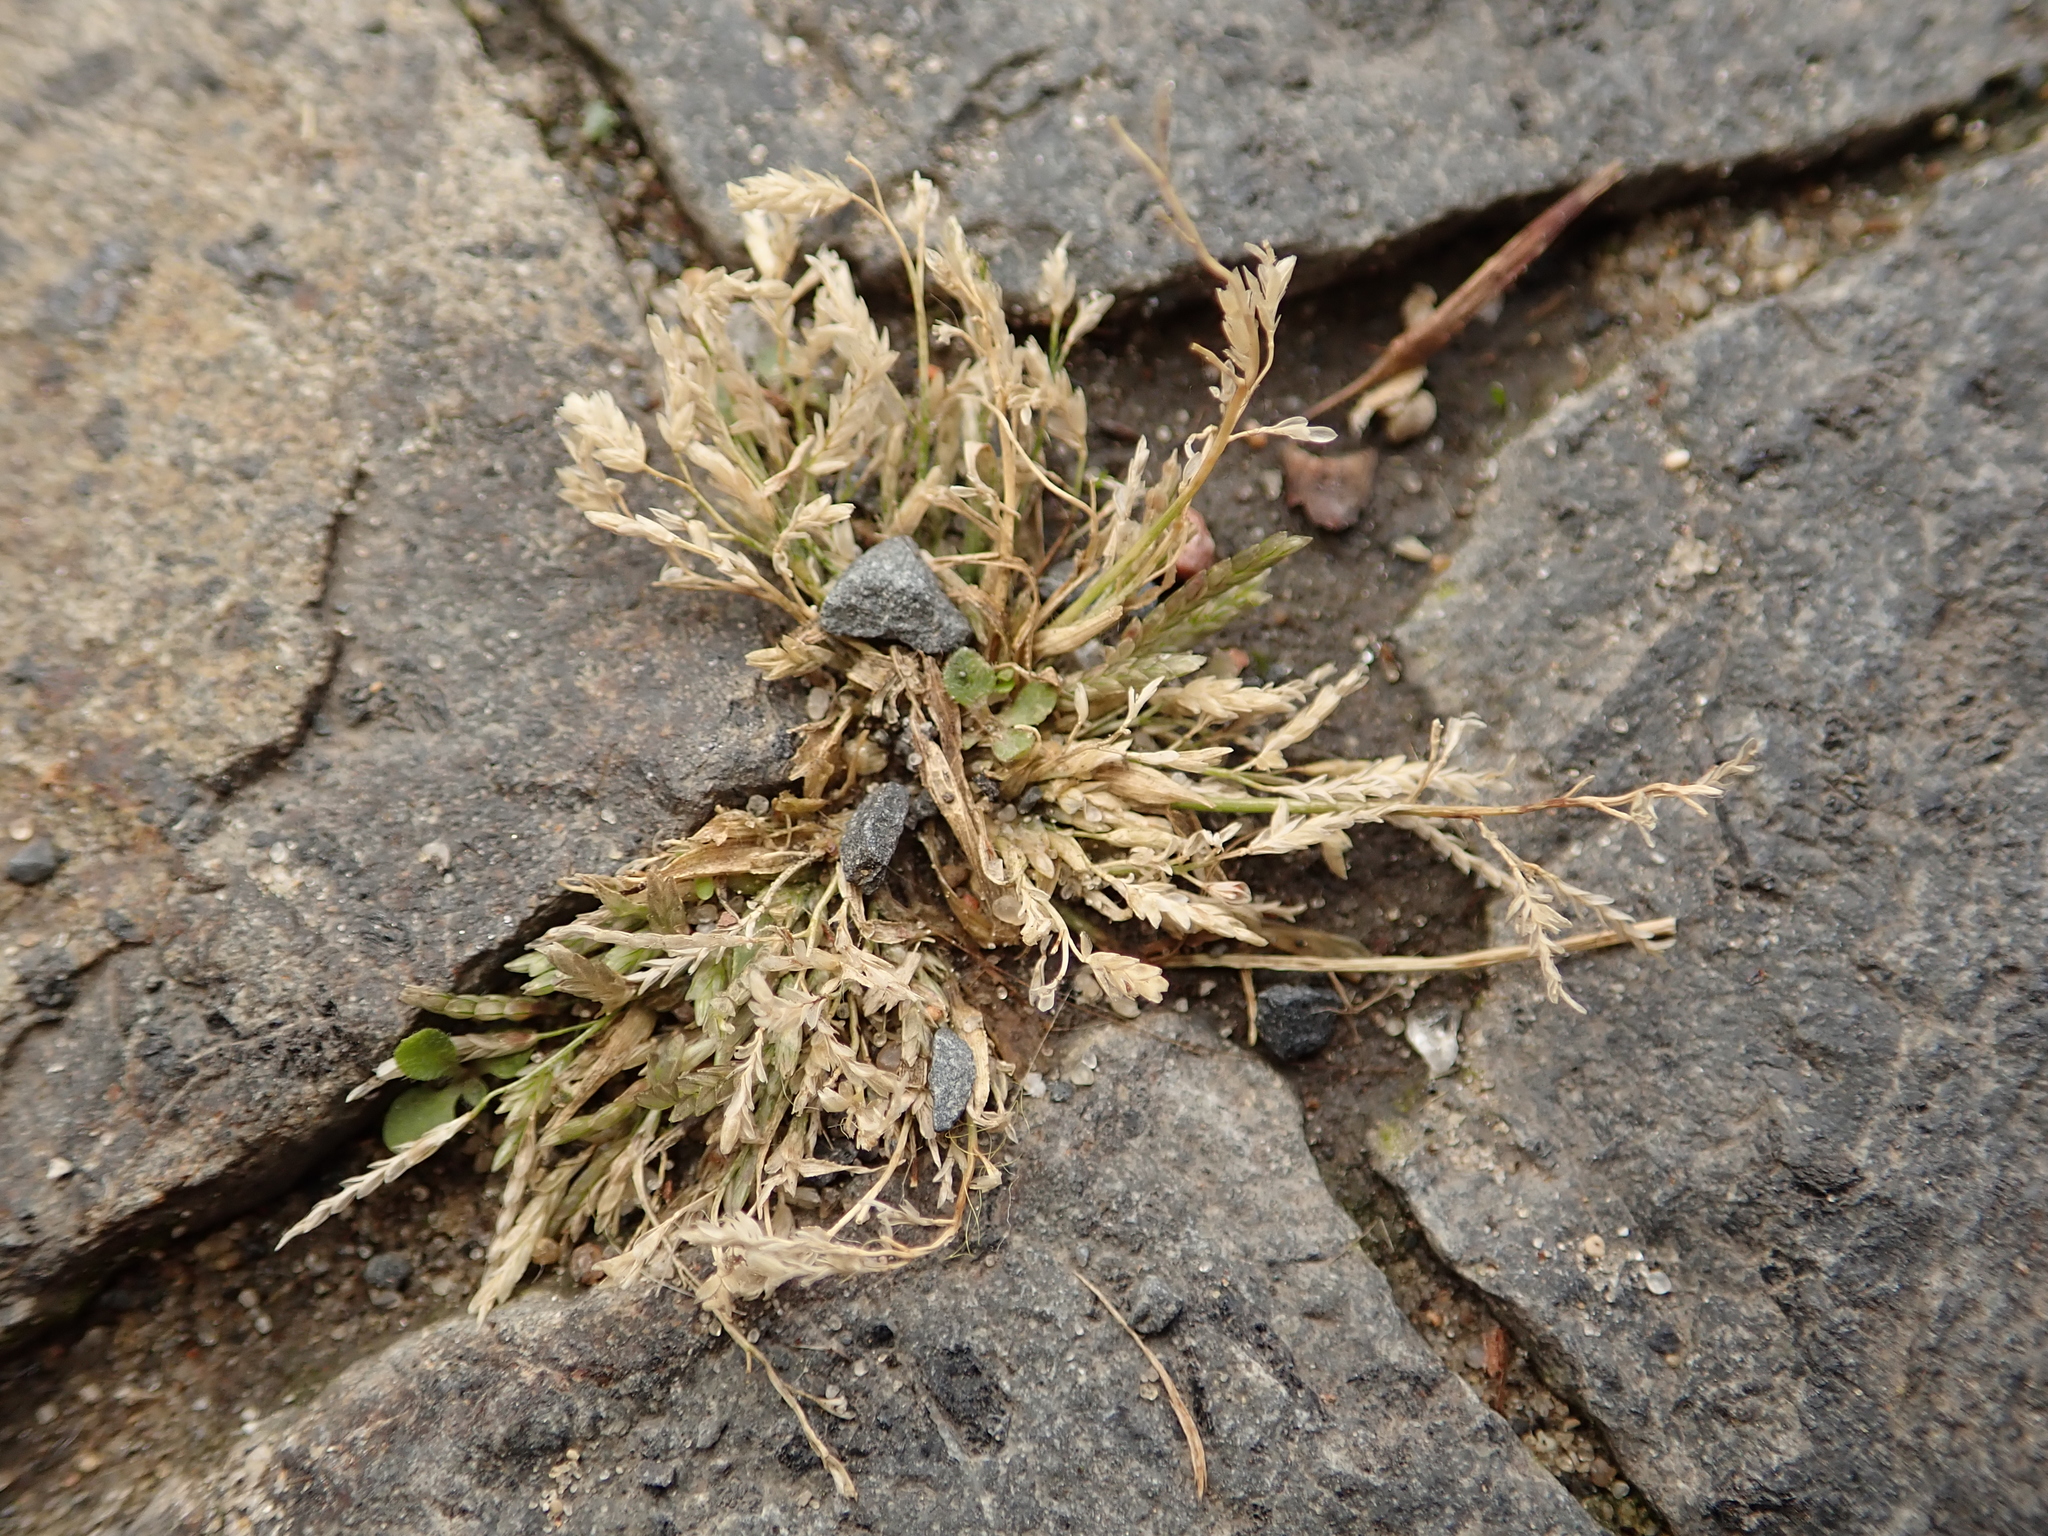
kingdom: Plantae
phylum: Tracheophyta
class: Liliopsida
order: Poales
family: Poaceae
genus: Eragrostis
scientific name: Eragrostis minor
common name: Small love-grass
